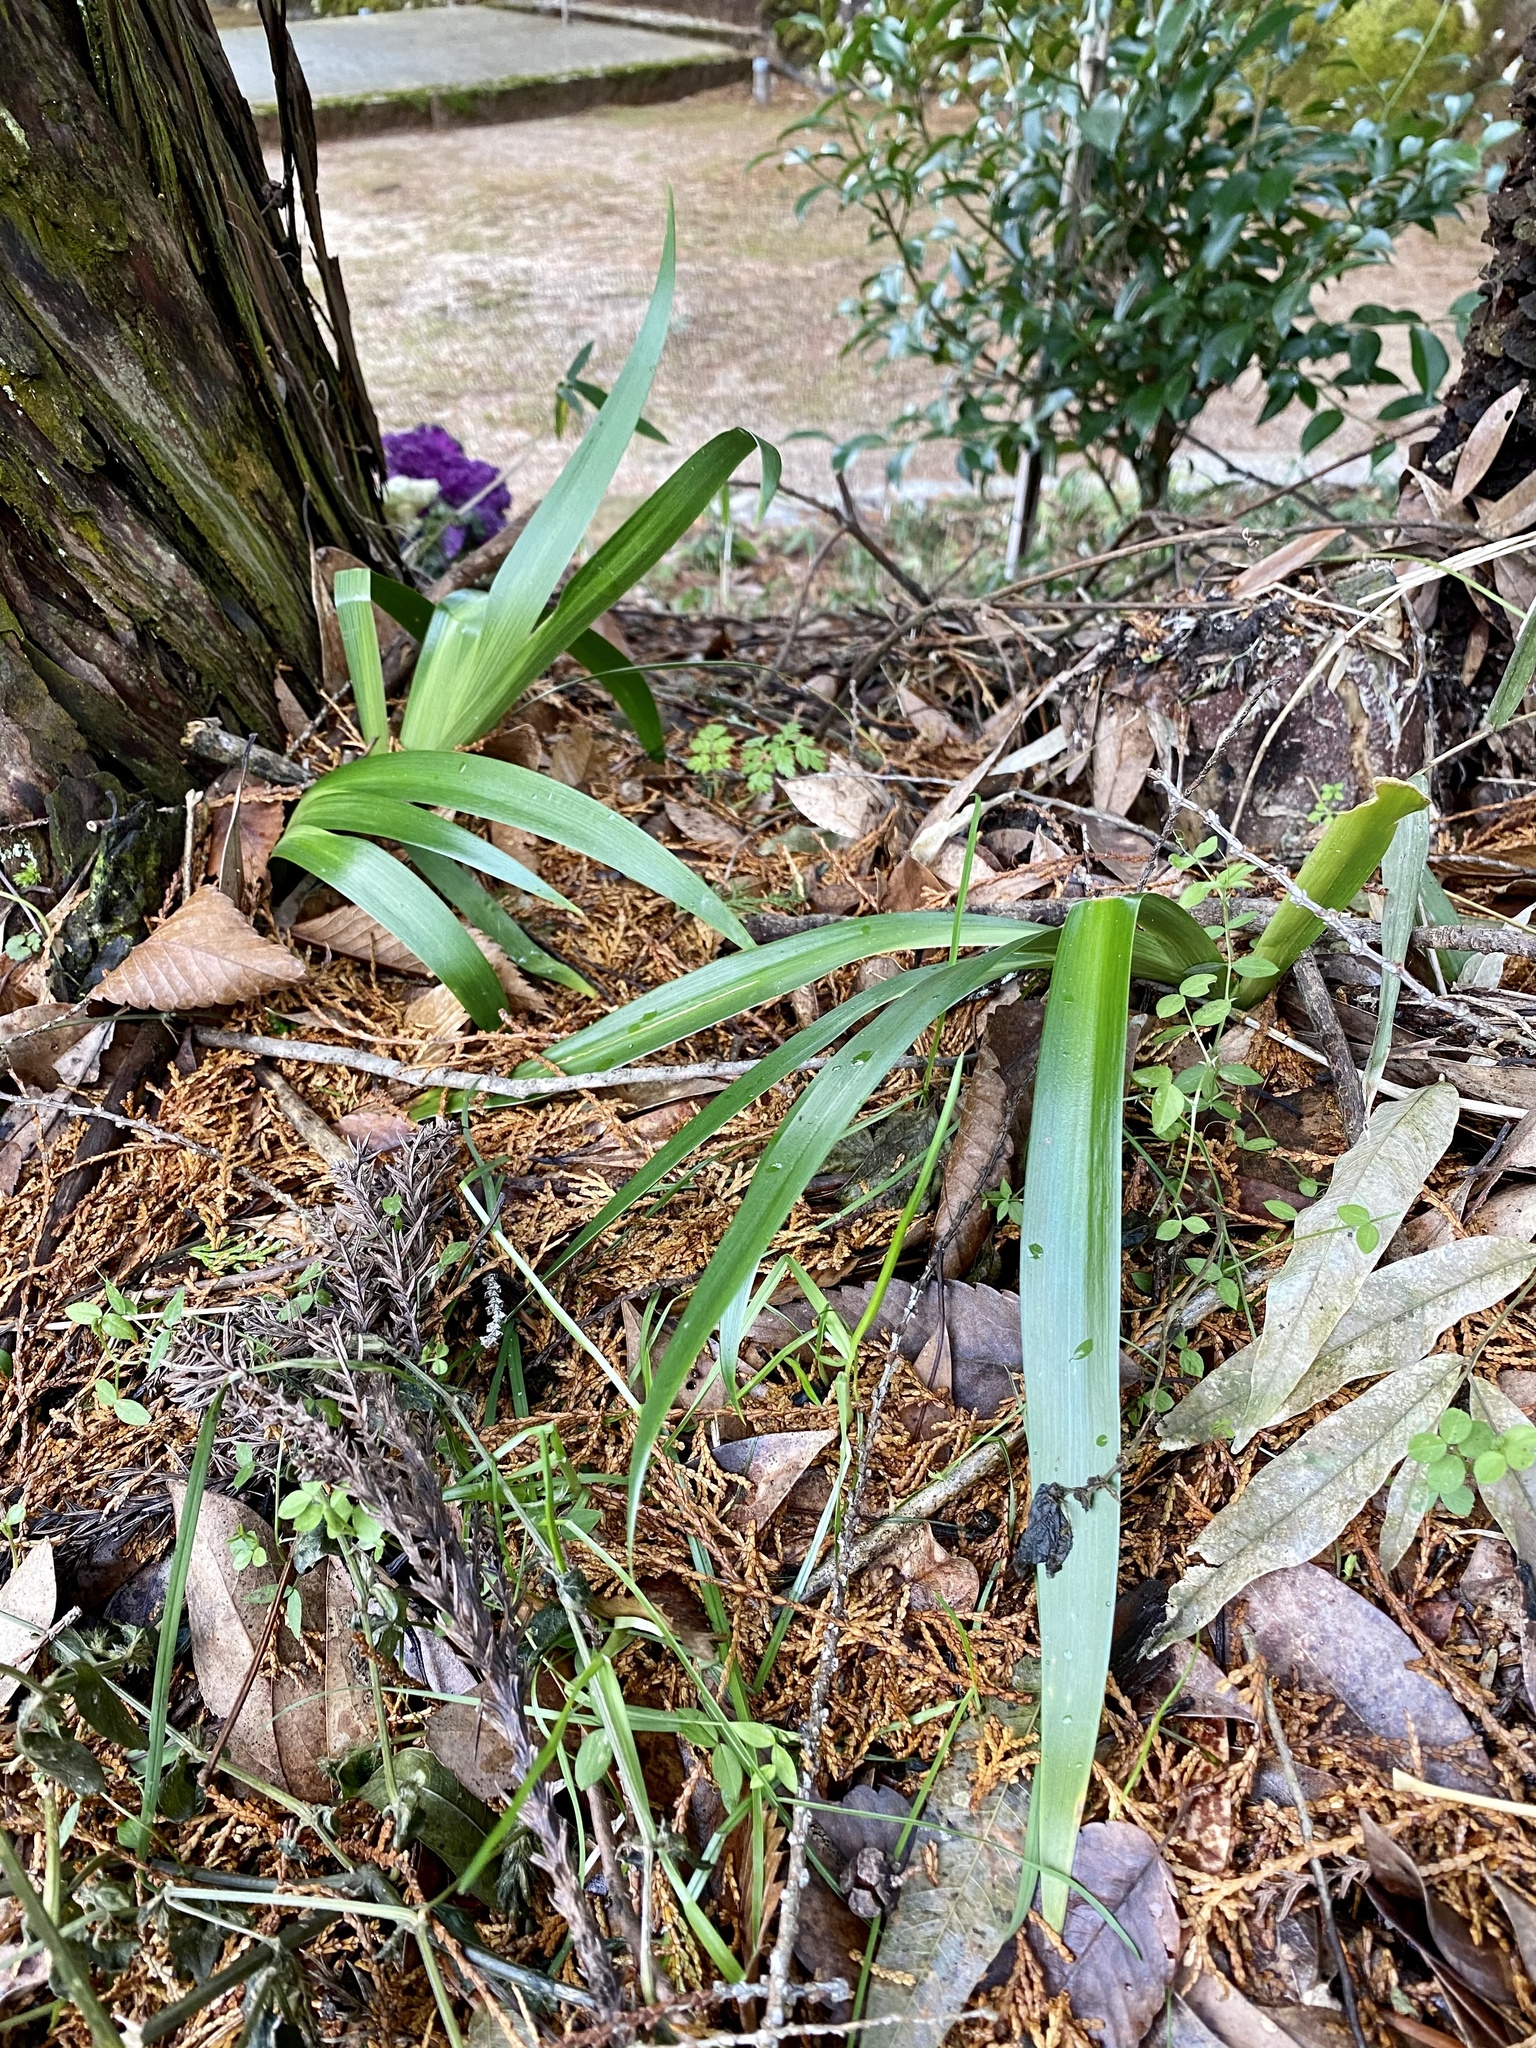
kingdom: Plantae
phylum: Tracheophyta
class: Liliopsida
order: Asparagales
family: Iridaceae
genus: Iris
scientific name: Iris japonica
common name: Butterfly-flower
